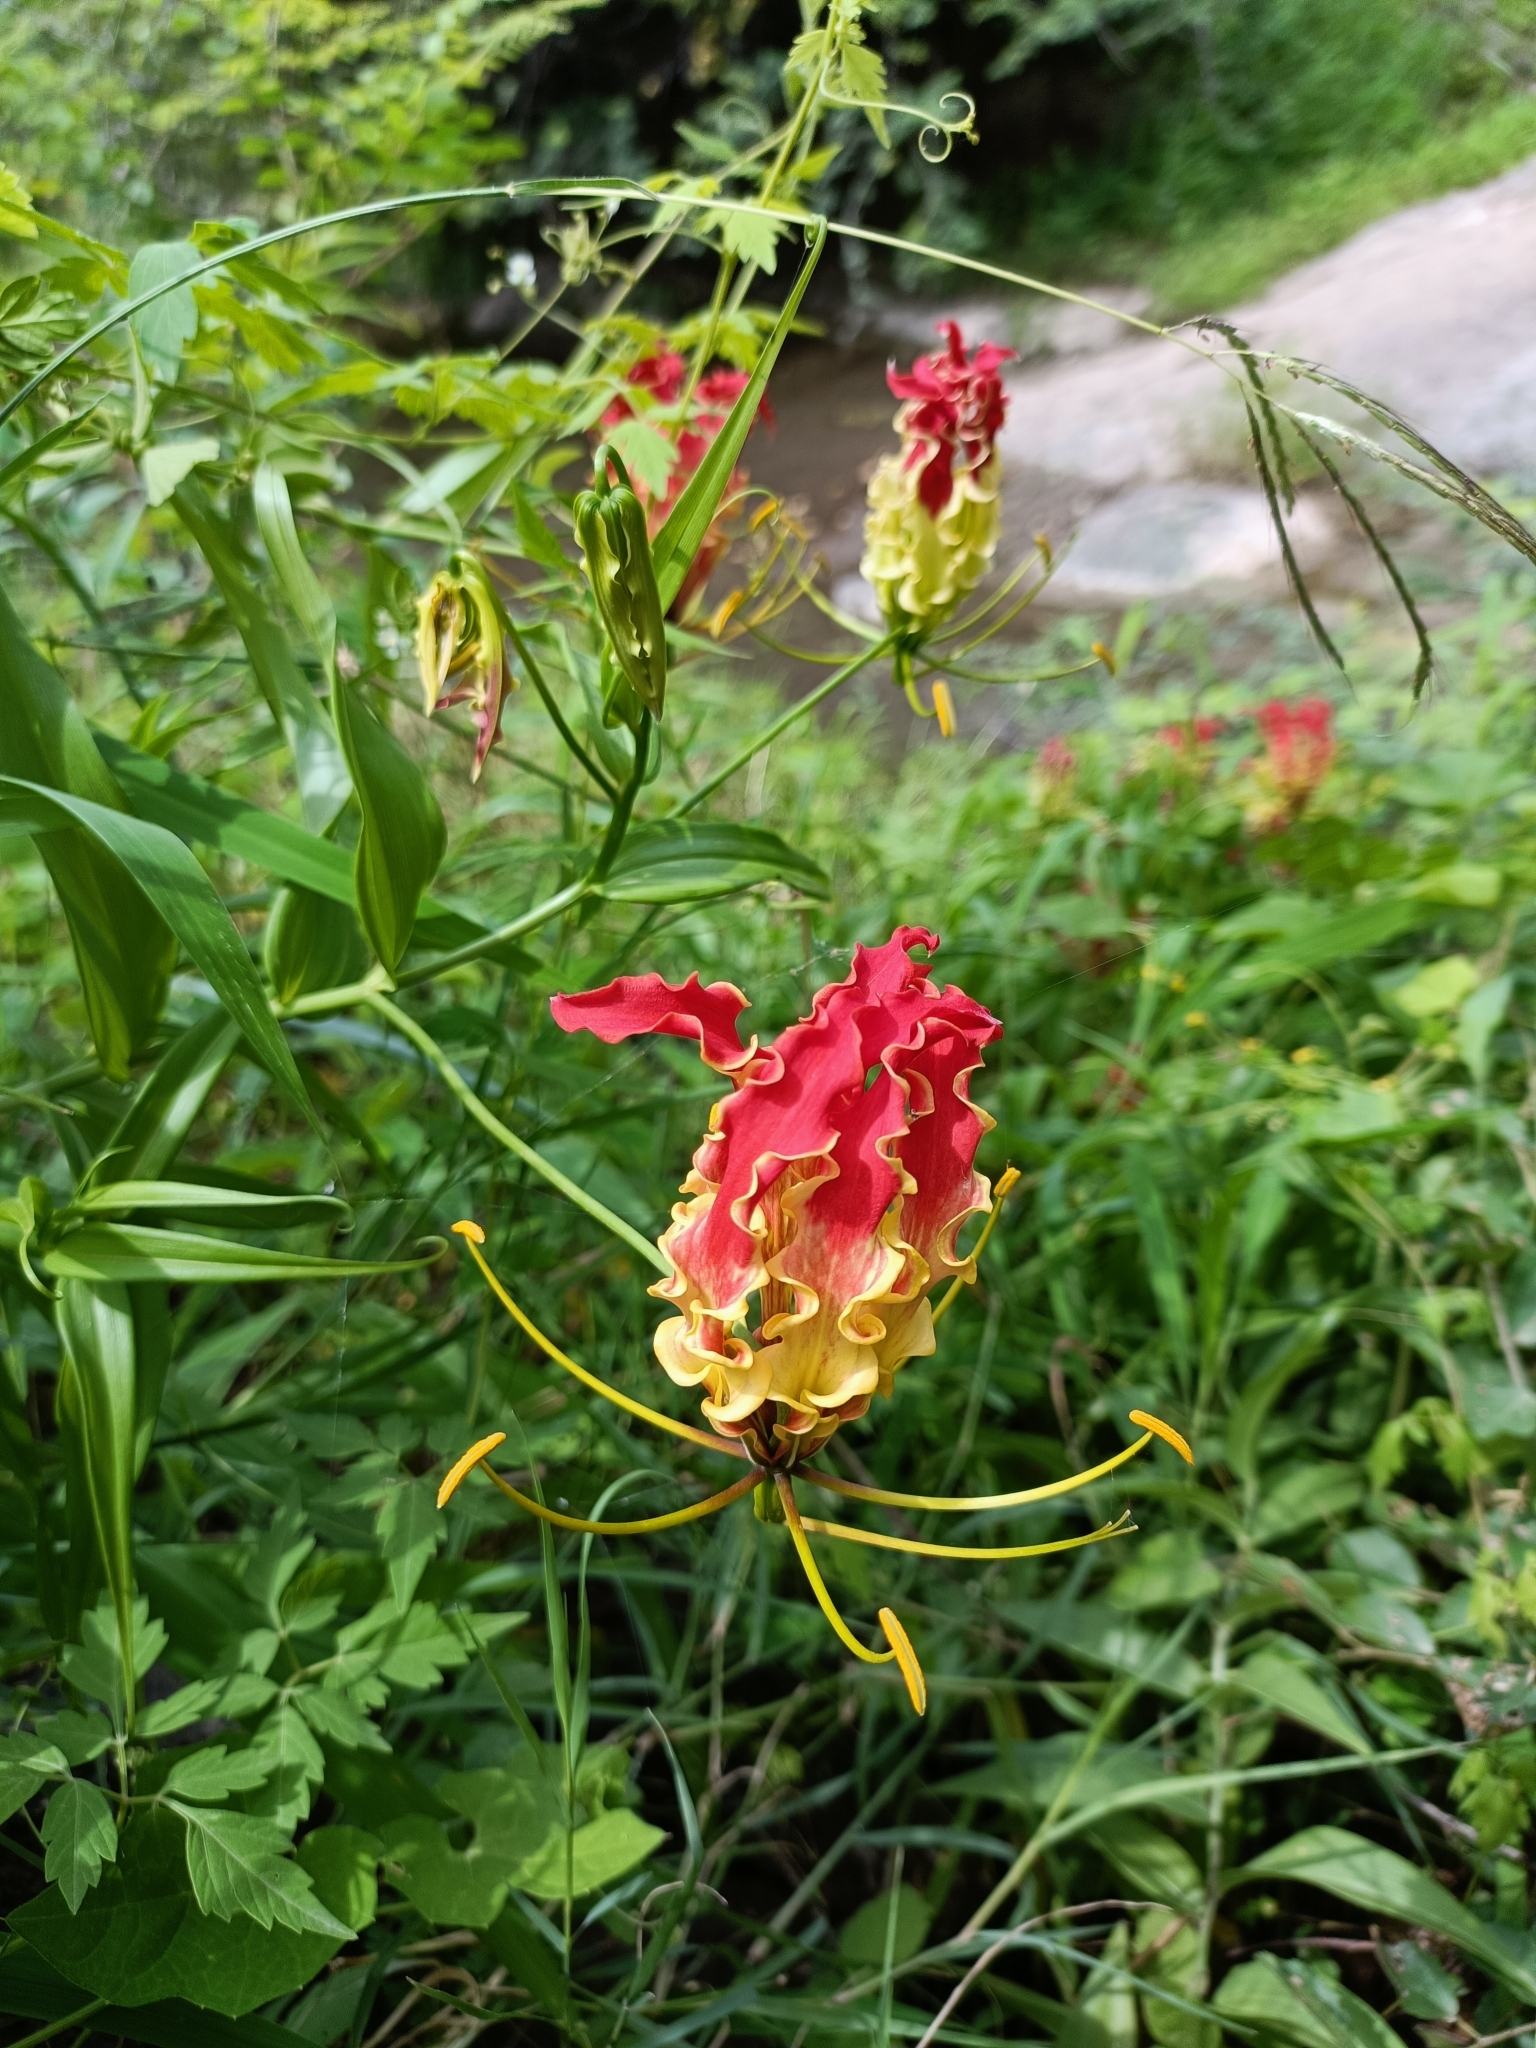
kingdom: Plantae
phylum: Tracheophyta
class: Liliopsida
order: Liliales
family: Colchicaceae
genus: Gloriosa
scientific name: Gloriosa superba
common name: Flame lily
